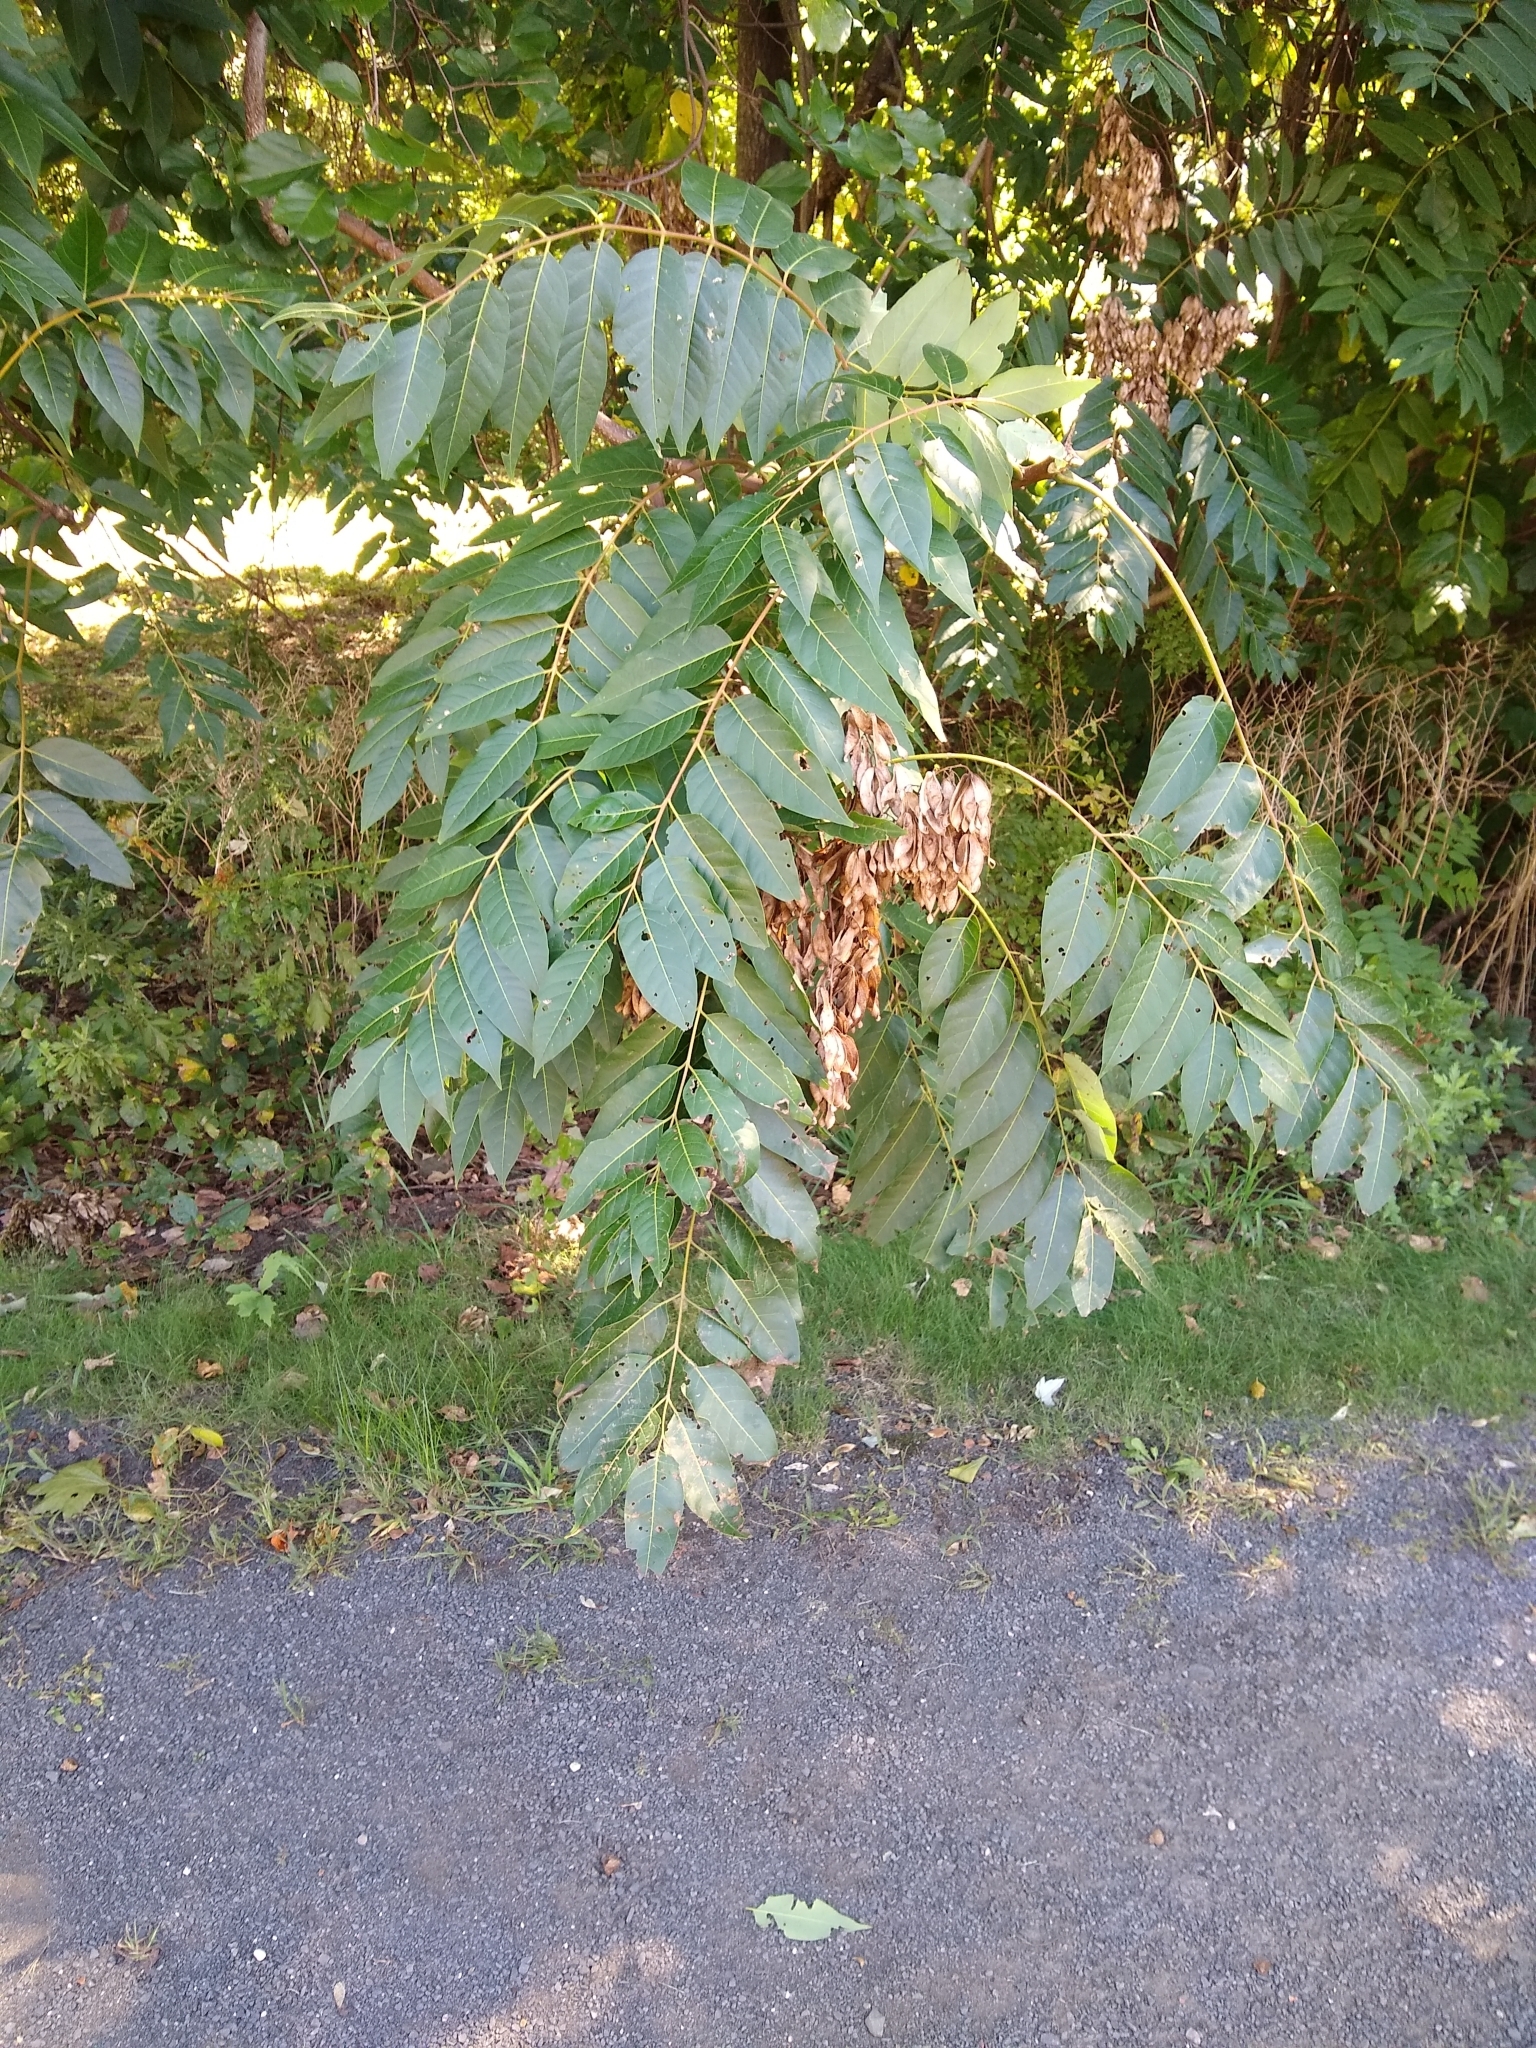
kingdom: Plantae
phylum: Tracheophyta
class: Magnoliopsida
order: Sapindales
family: Simaroubaceae
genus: Ailanthus
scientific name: Ailanthus altissima
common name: Tree-of-heaven
